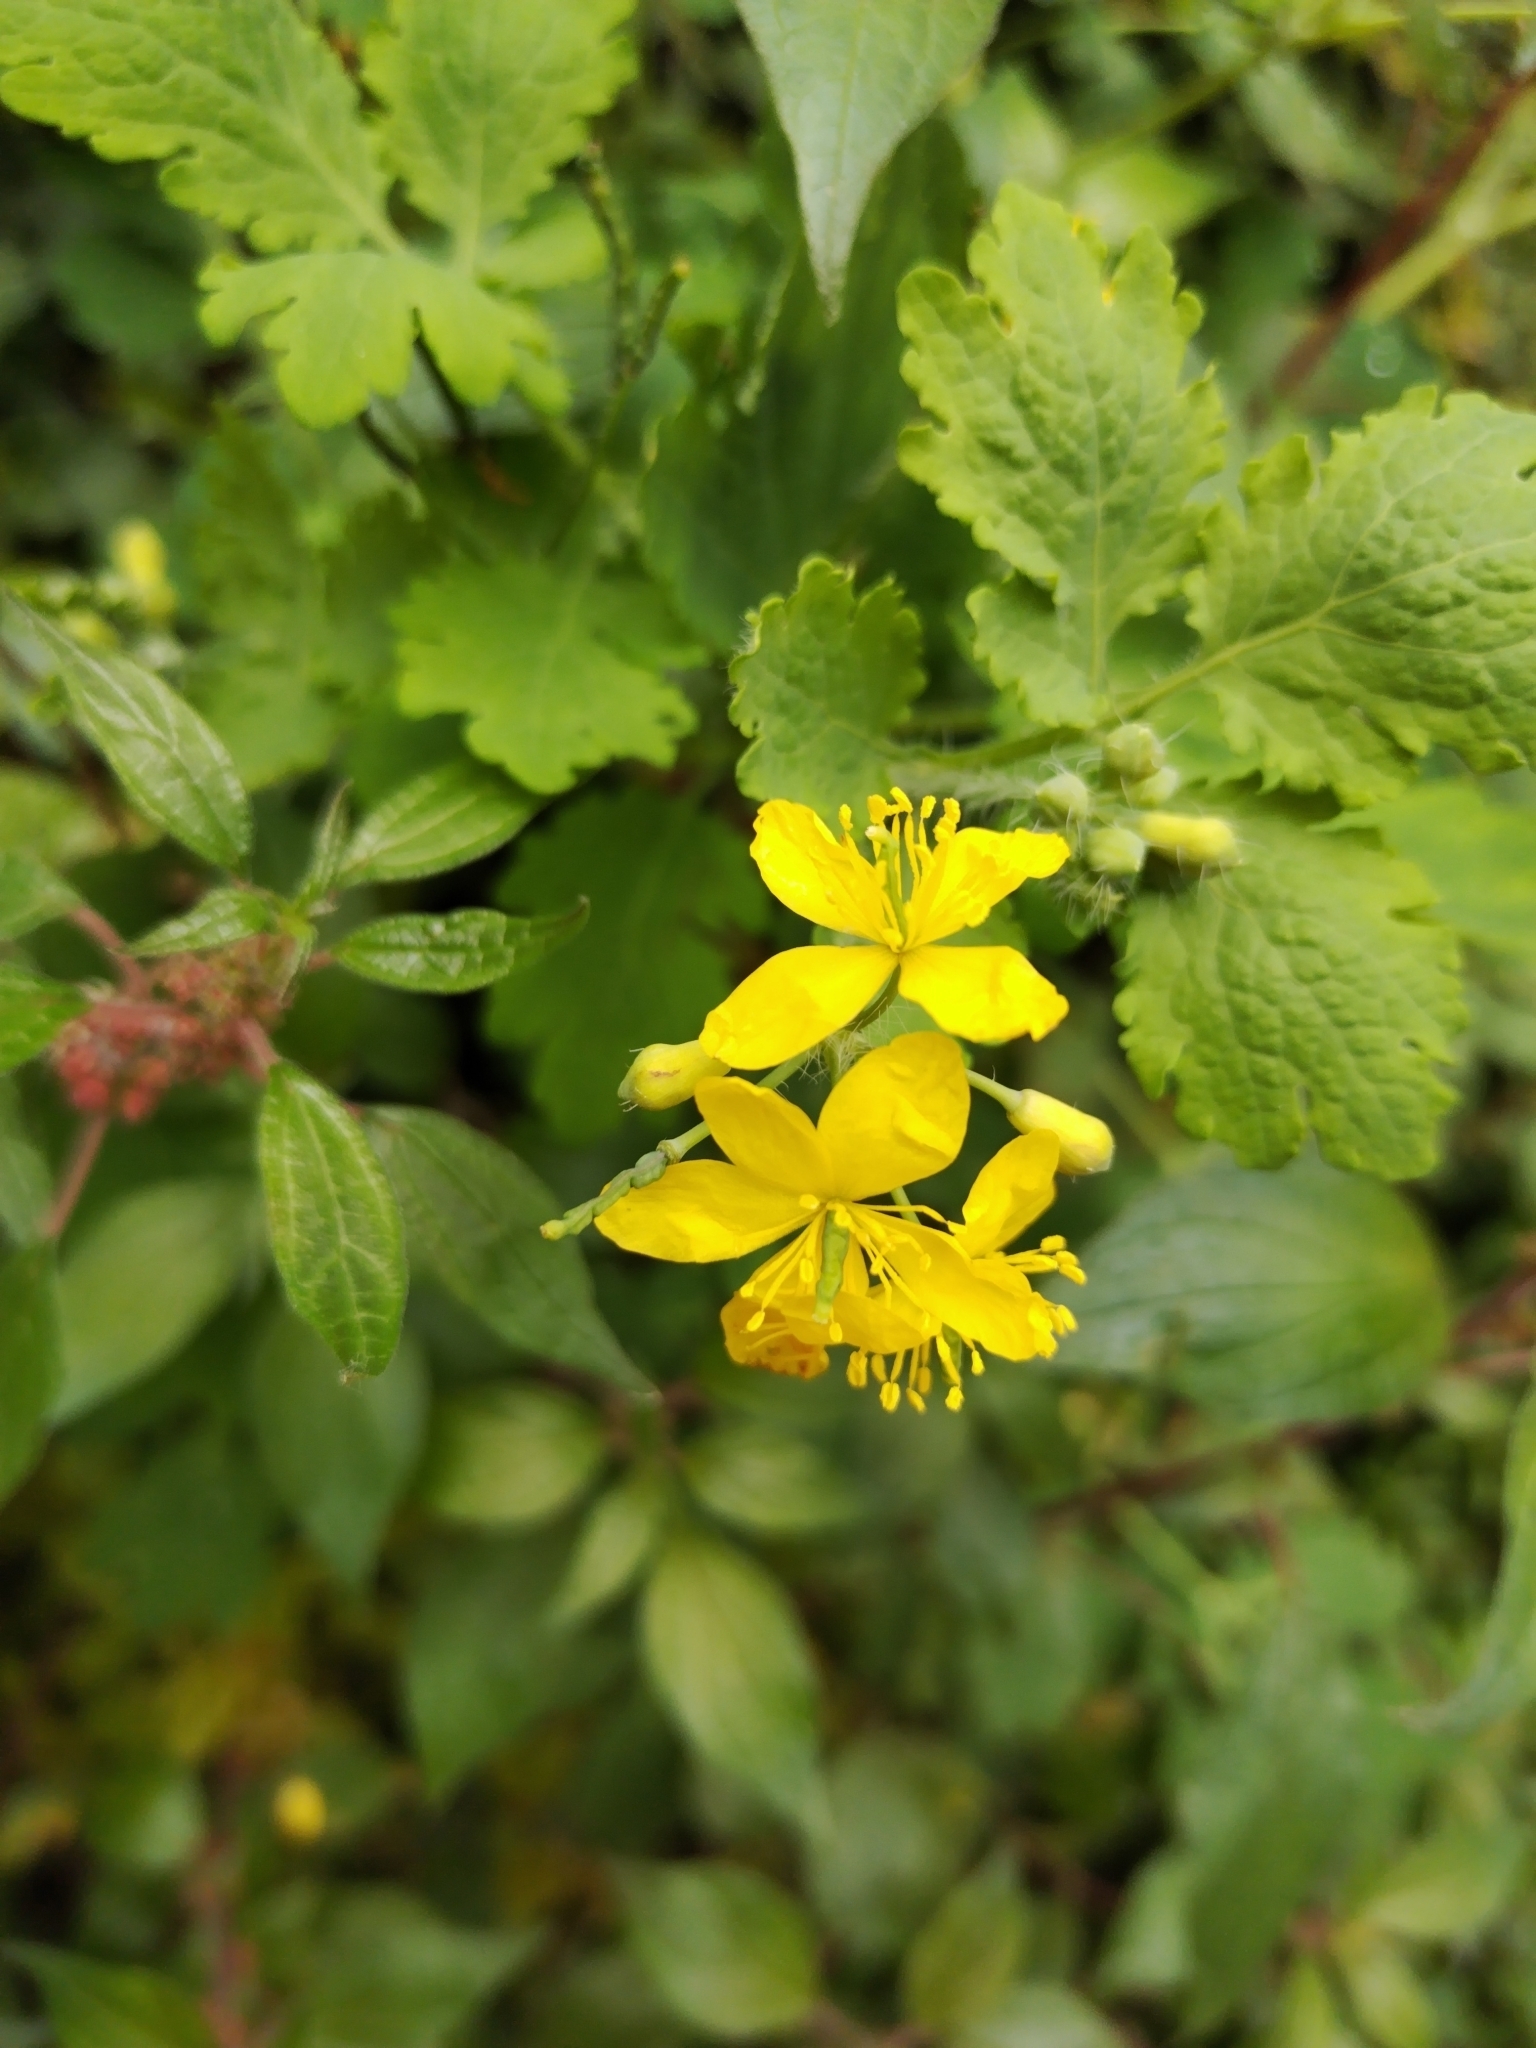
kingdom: Plantae
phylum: Tracheophyta
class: Magnoliopsida
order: Ranunculales
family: Papaveraceae
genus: Chelidonium
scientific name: Chelidonium majus
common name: Greater celandine
